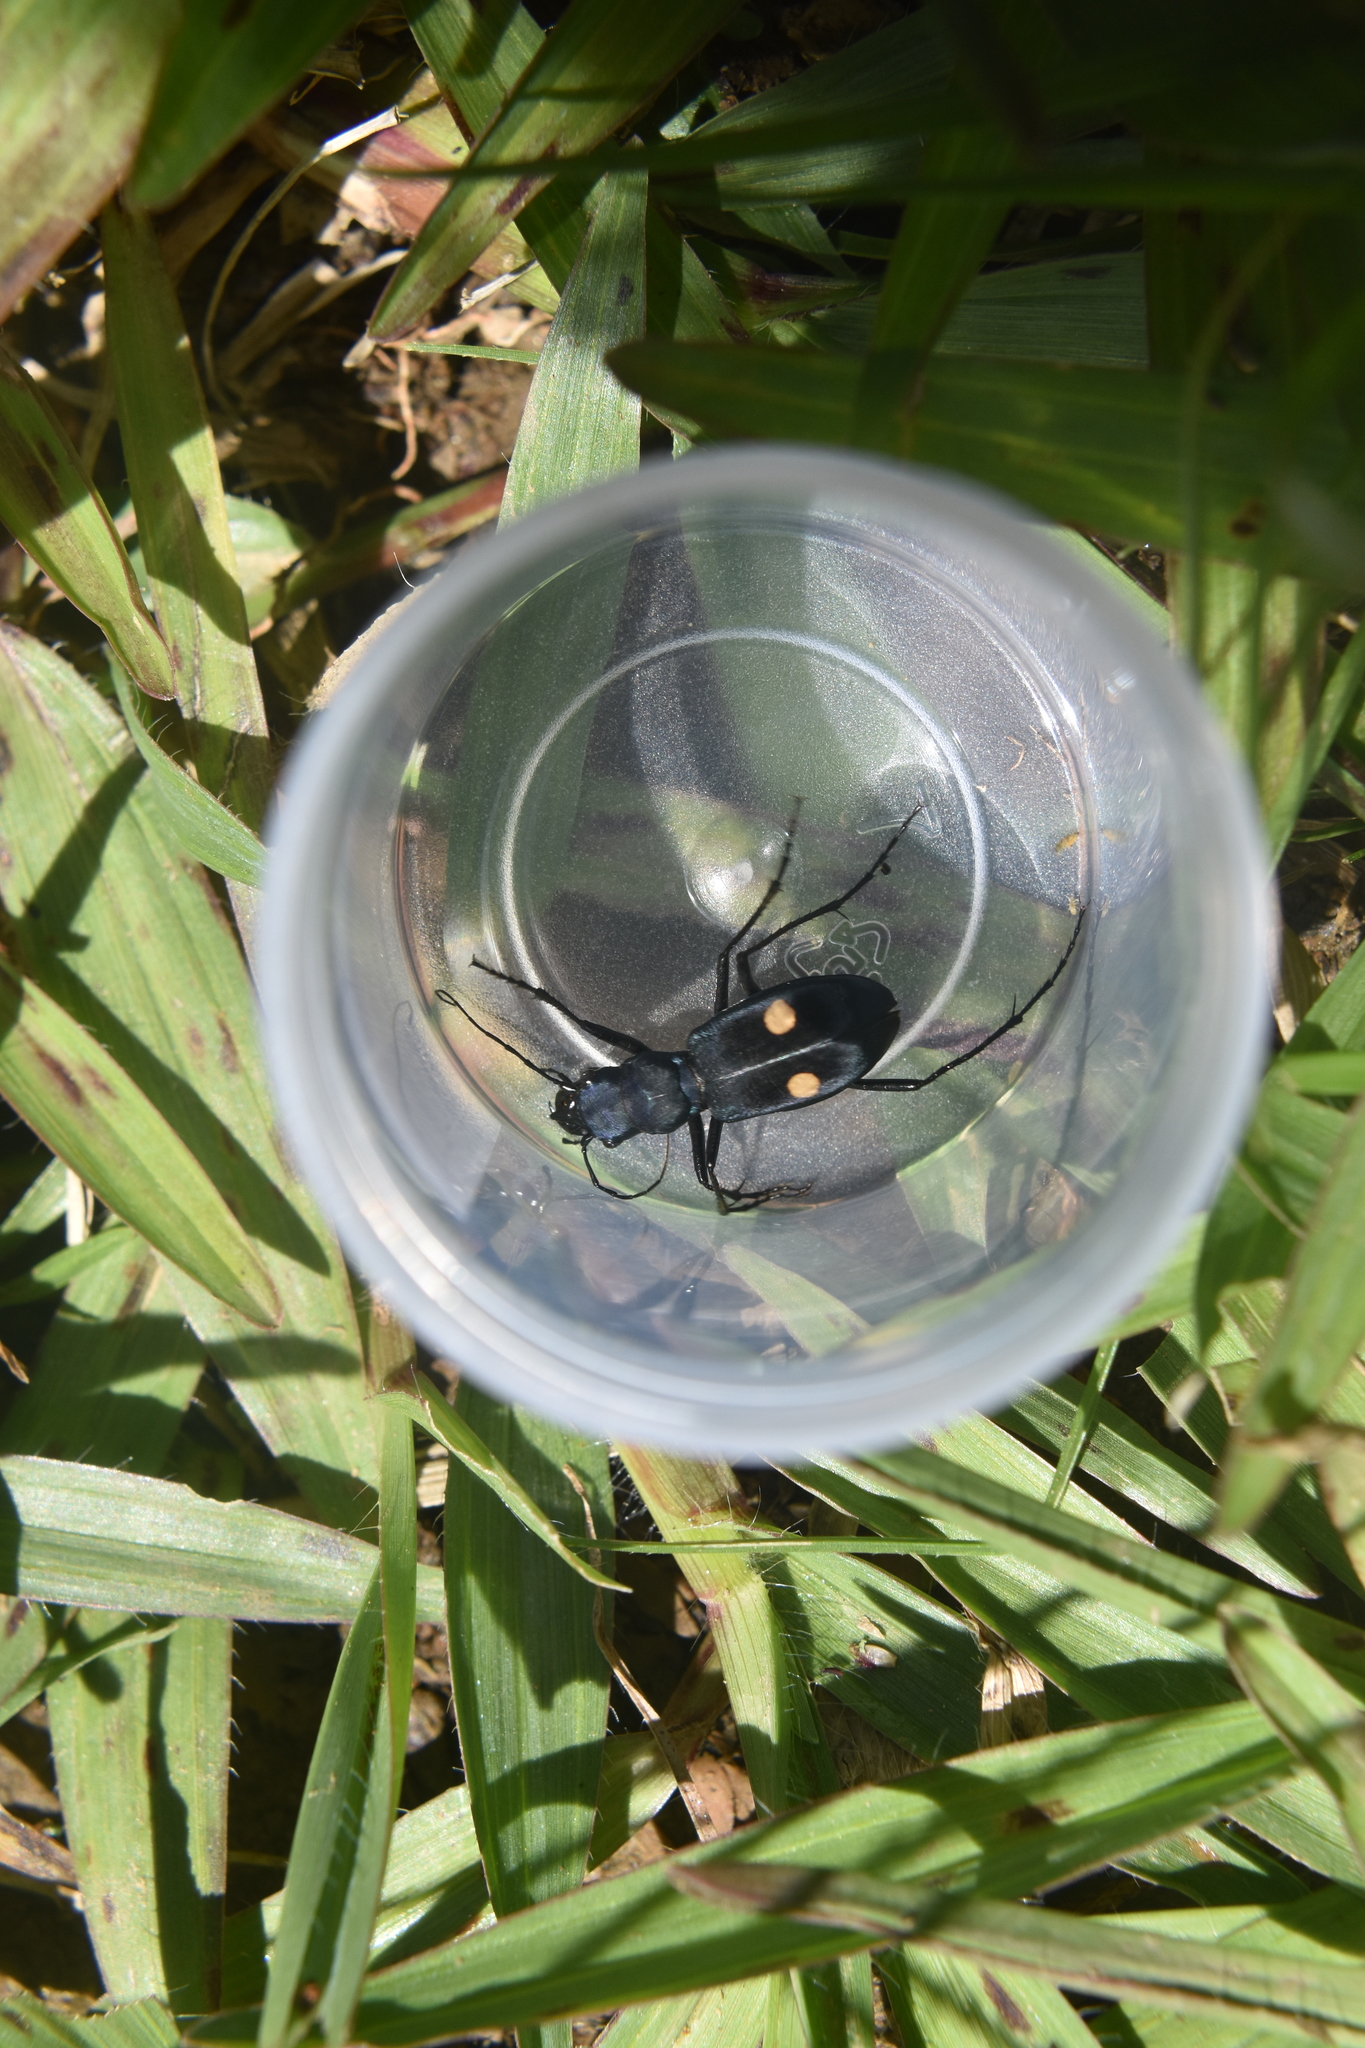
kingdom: Animalia
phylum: Arthropoda
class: Insecta
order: Coleoptera
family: Carabidae
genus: Pseudoxycheila
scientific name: Pseudoxycheila bipustulata
